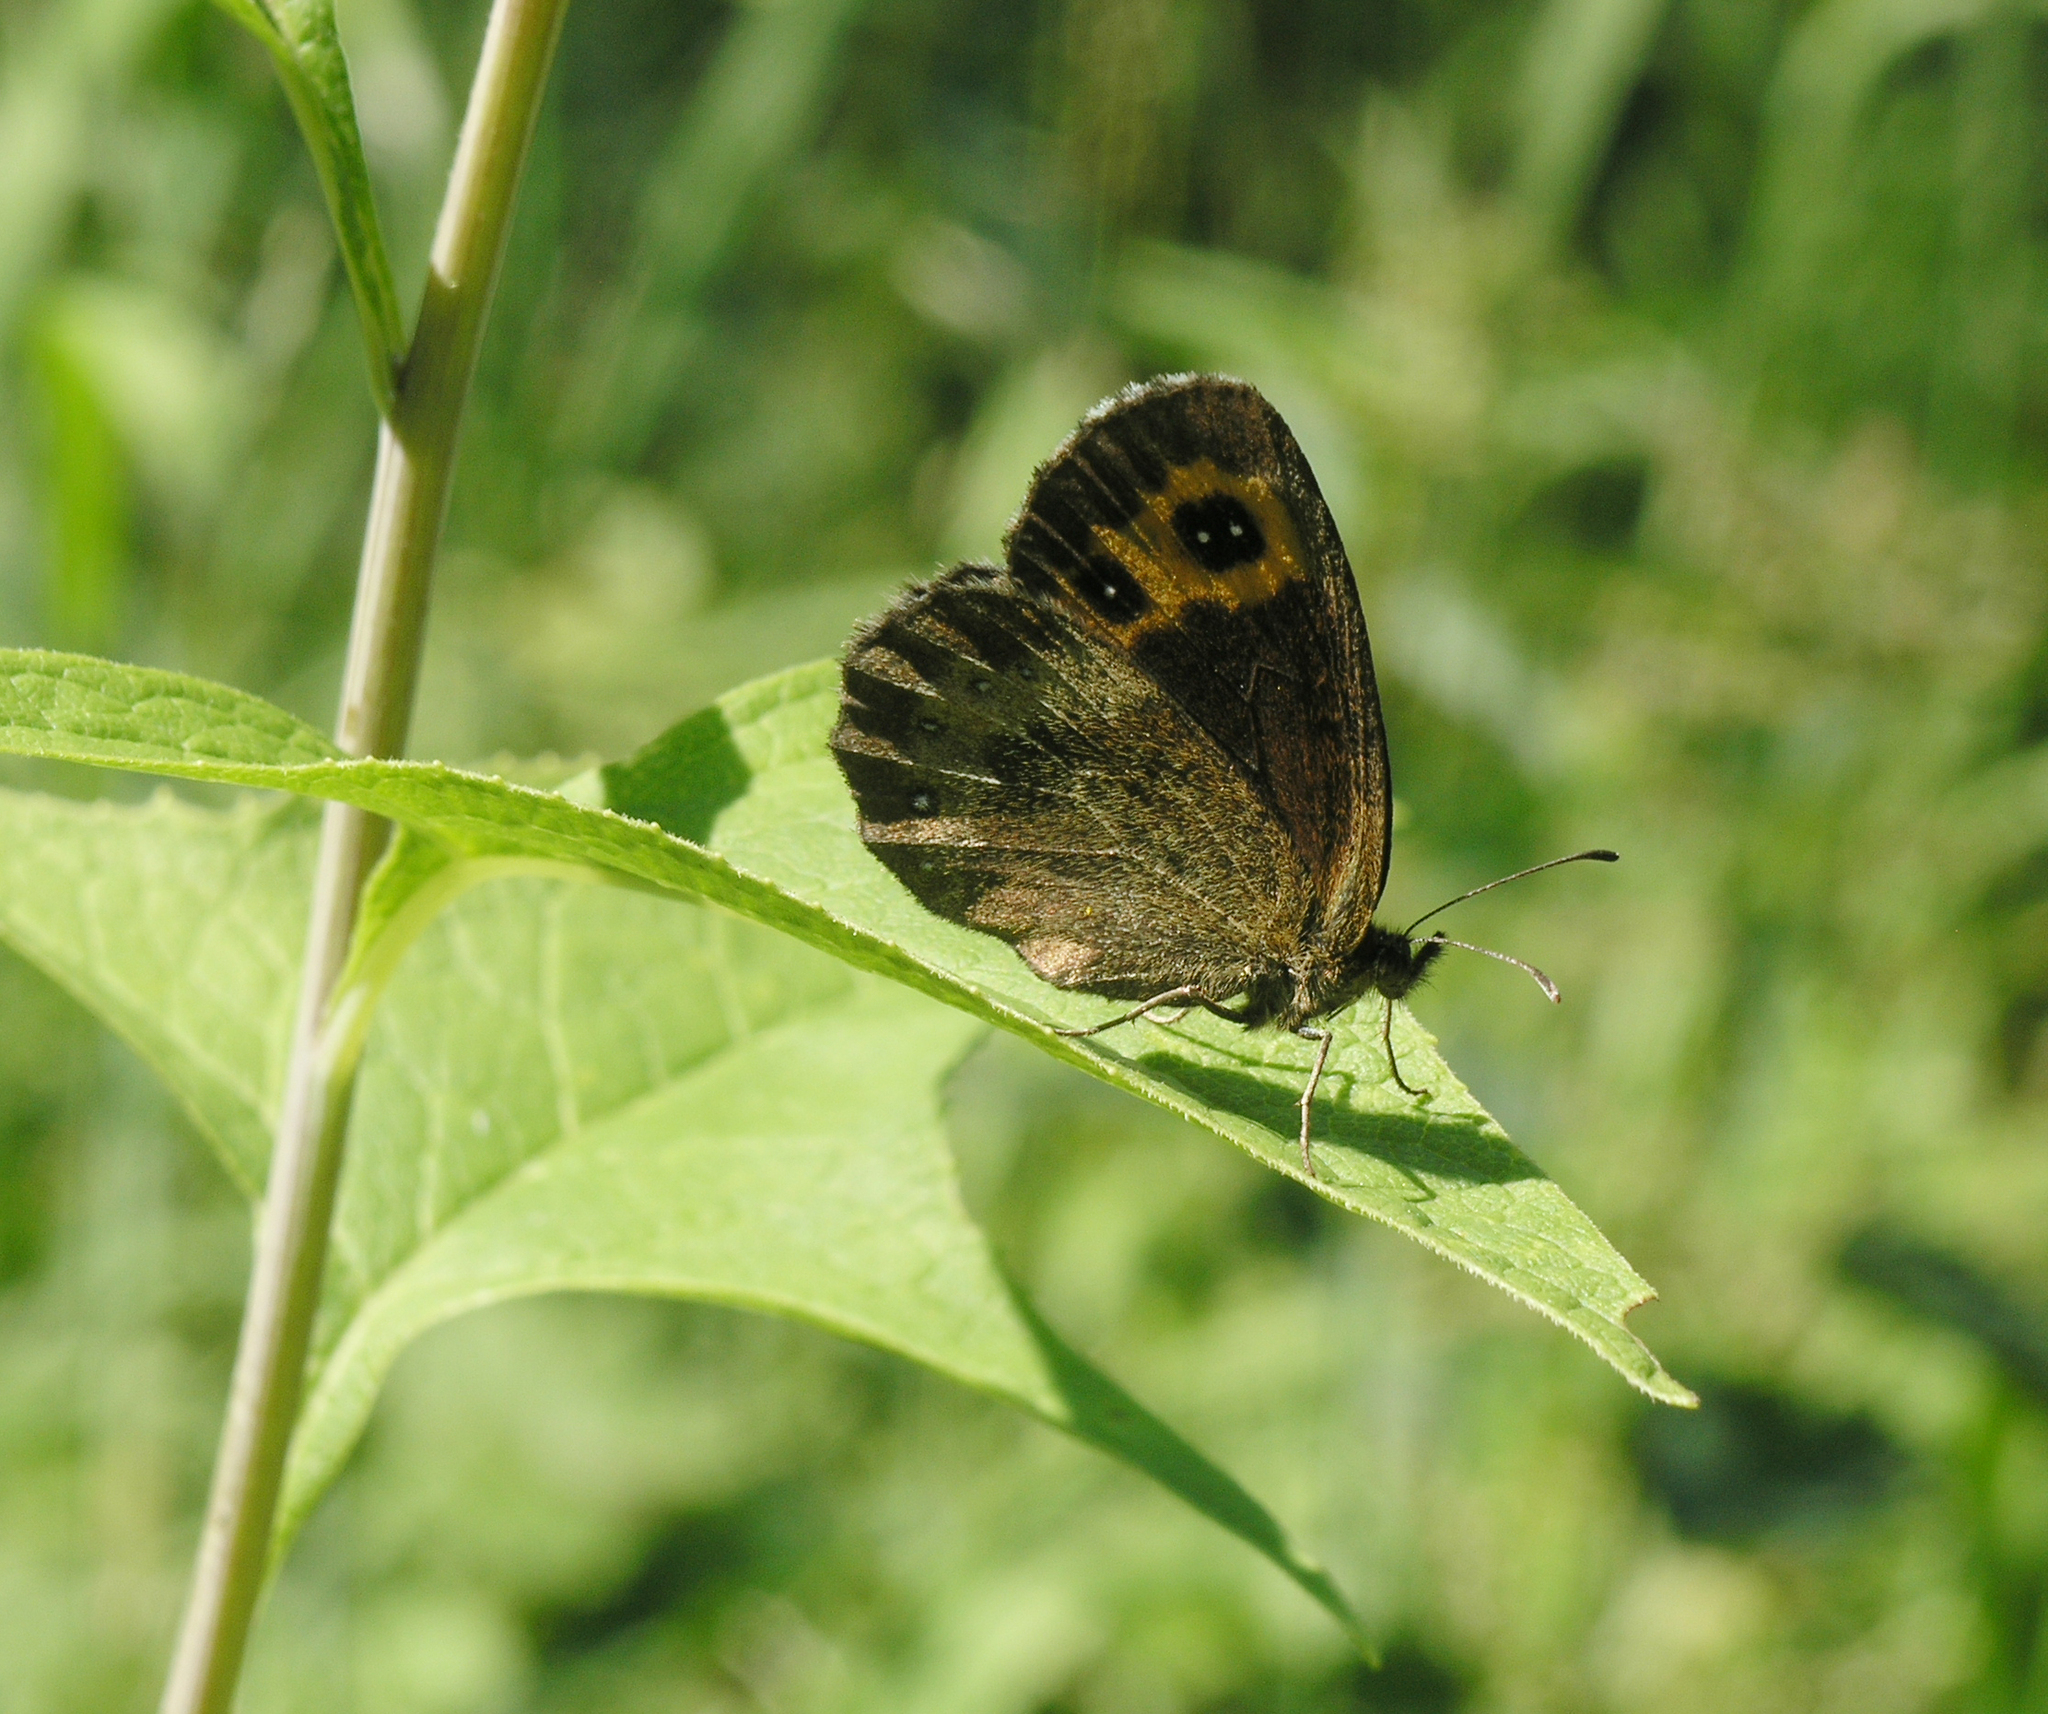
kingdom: Animalia
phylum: Arthropoda
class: Insecta
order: Lepidoptera
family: Nymphalidae
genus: Erebia
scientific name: Erebia neriene
